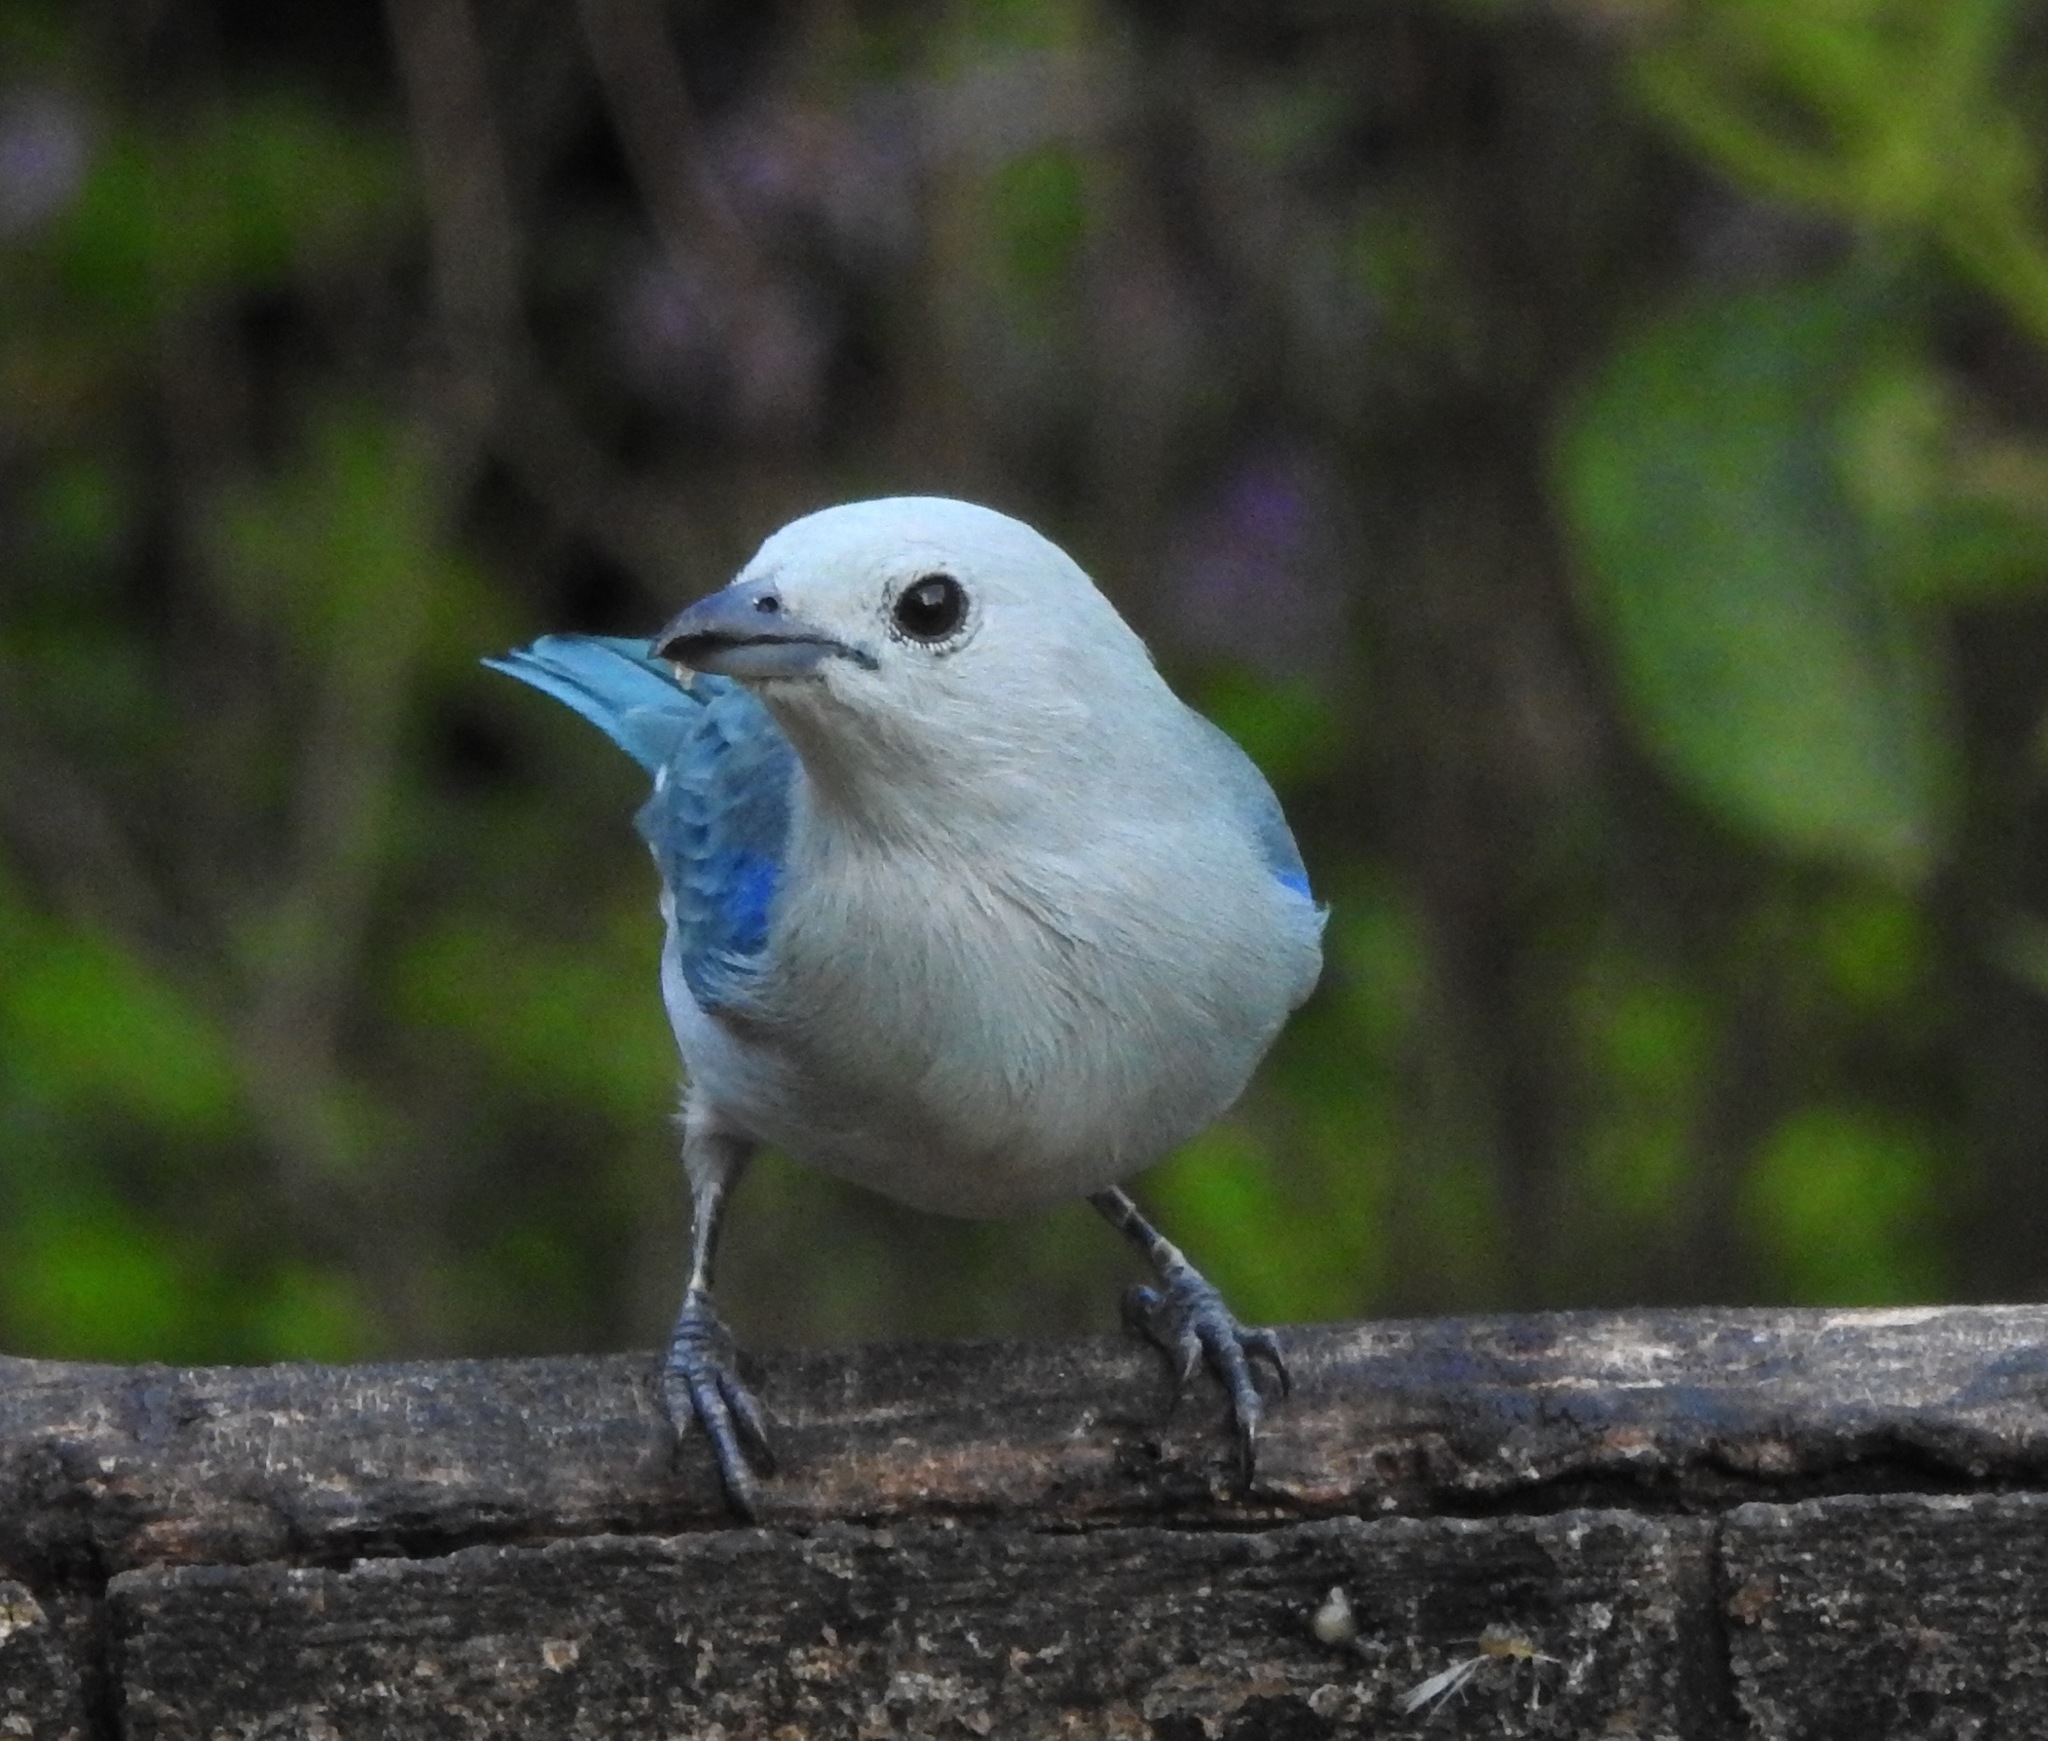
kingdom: Animalia
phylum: Chordata
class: Aves
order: Passeriformes
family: Thraupidae
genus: Thraupis
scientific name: Thraupis episcopus
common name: Blue-grey tanager
